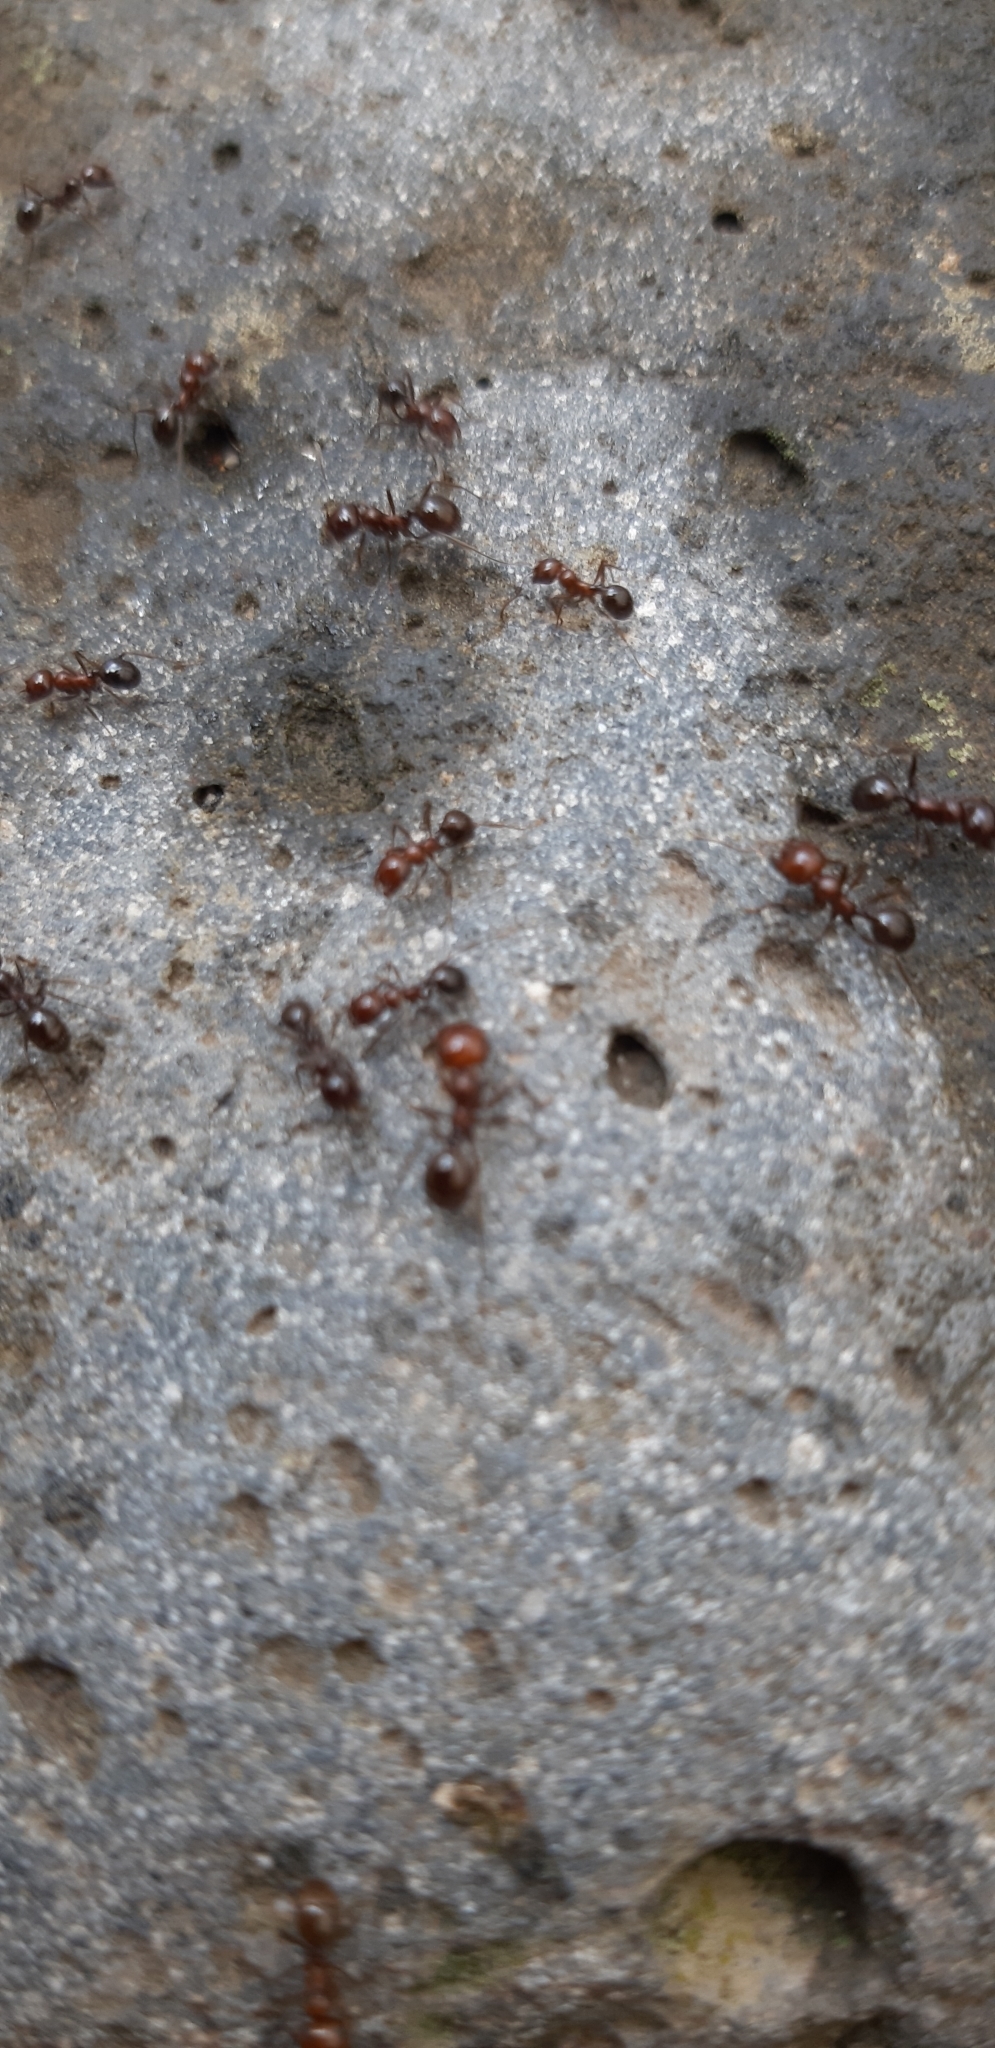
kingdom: Animalia
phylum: Arthropoda
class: Insecta
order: Hymenoptera
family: Formicidae
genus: Messor
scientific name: Messor minor
